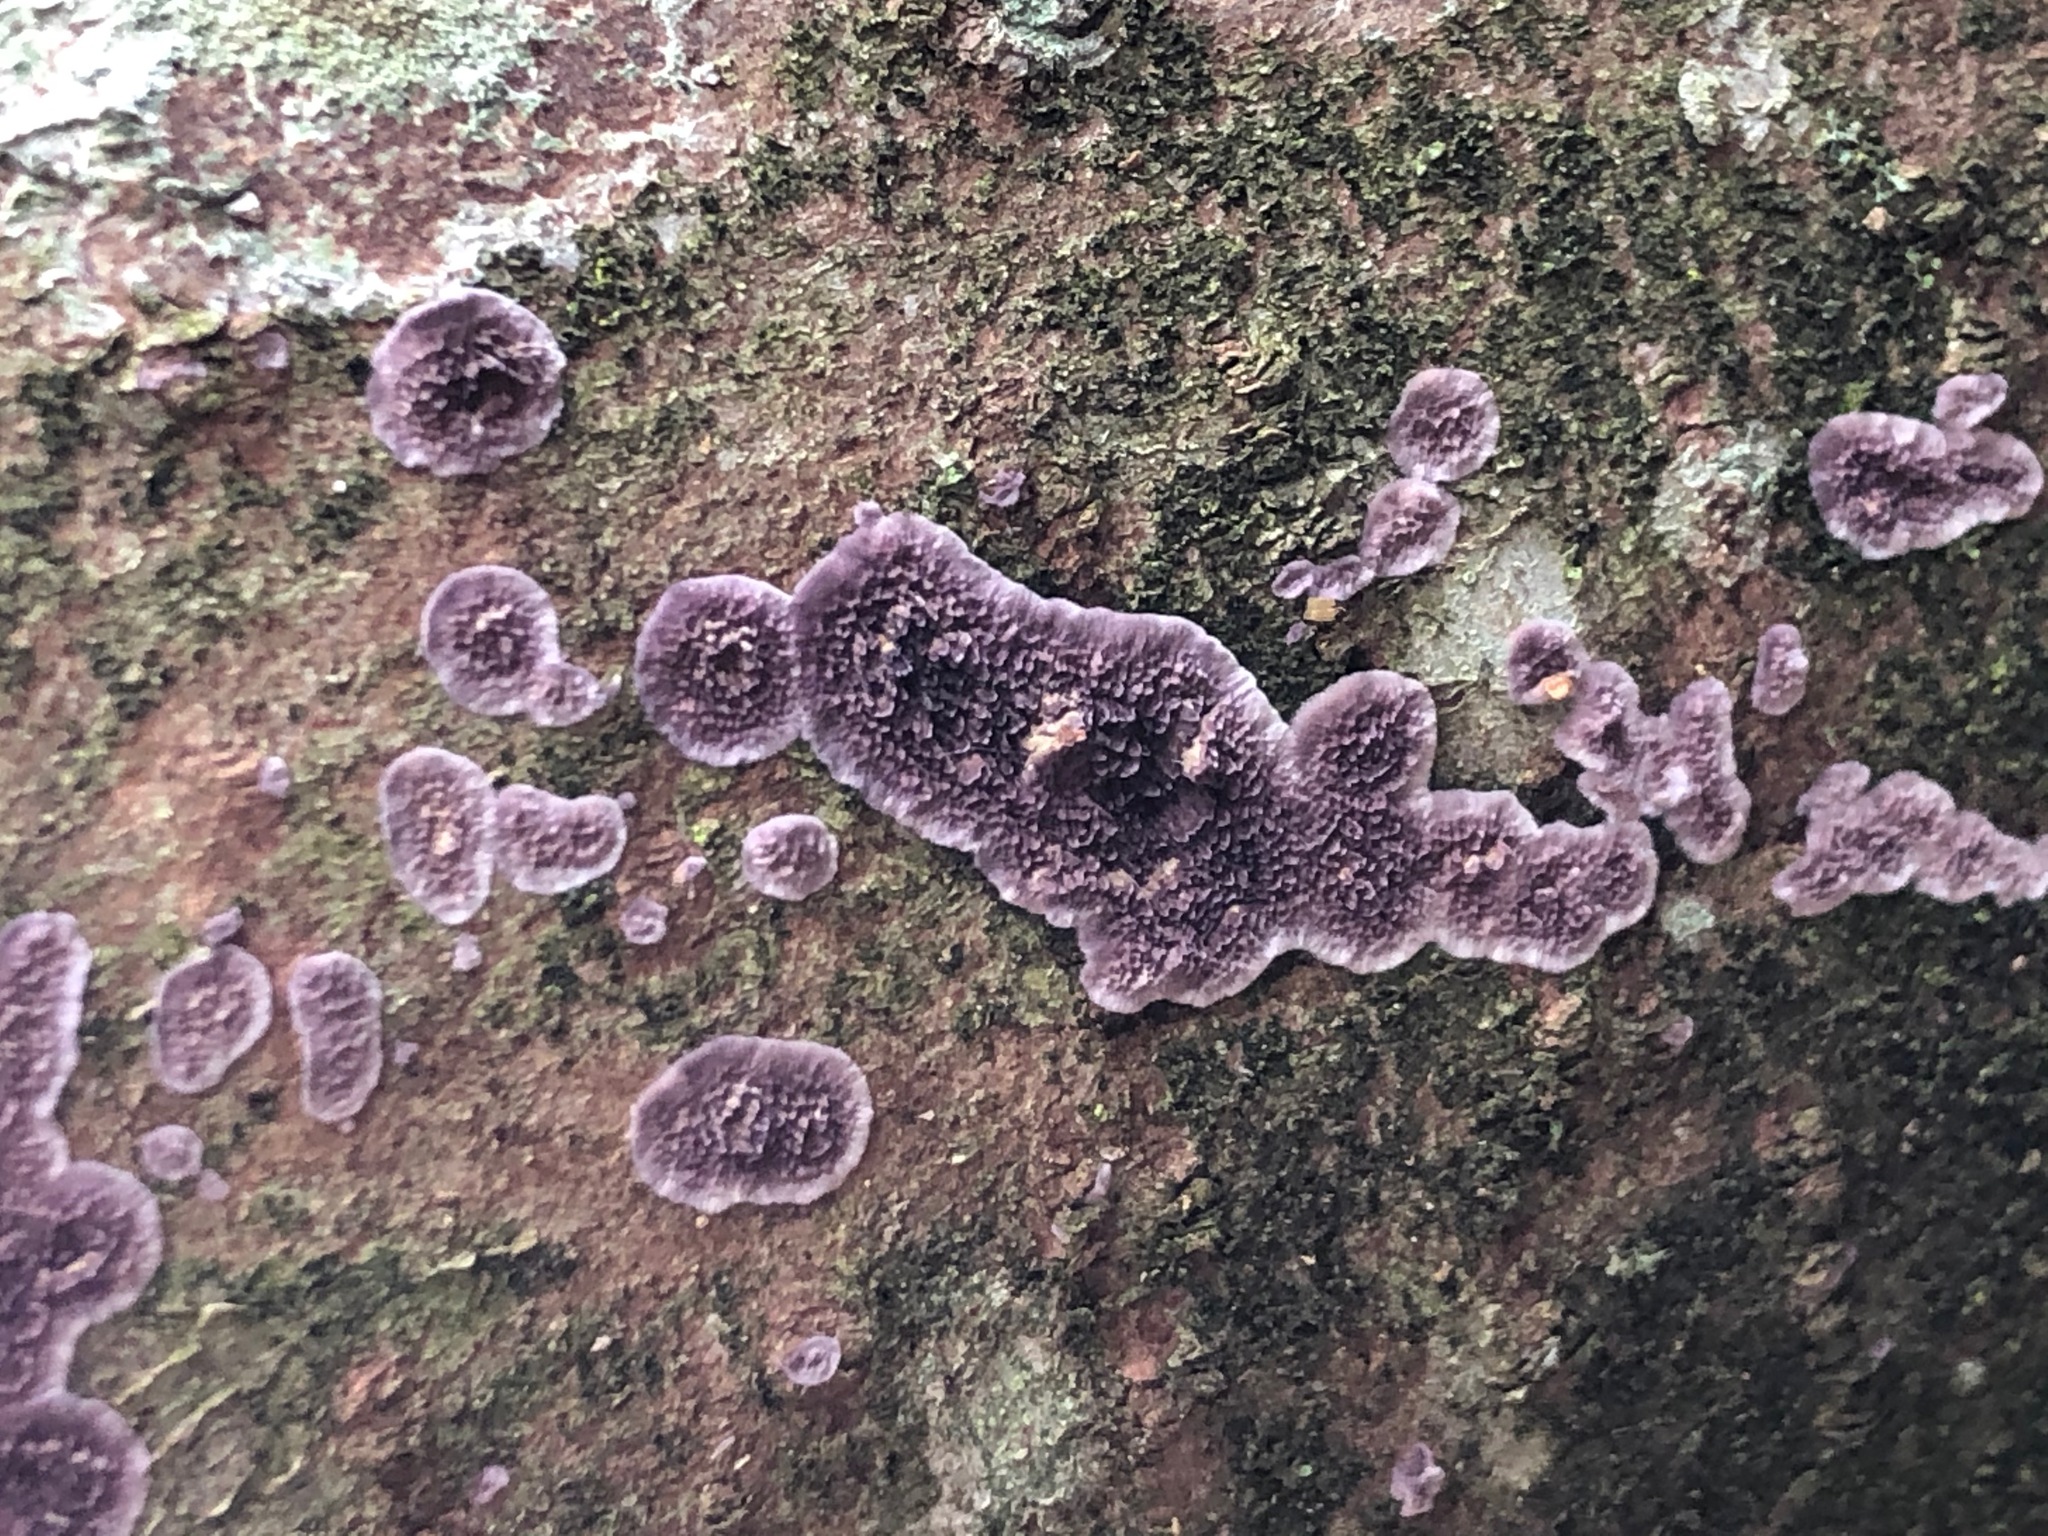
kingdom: Fungi
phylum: Basidiomycota
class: Agaricomycetes
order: Hymenochaetales
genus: Trichaptum
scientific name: Trichaptum abietinum
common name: Purplepore bracket
